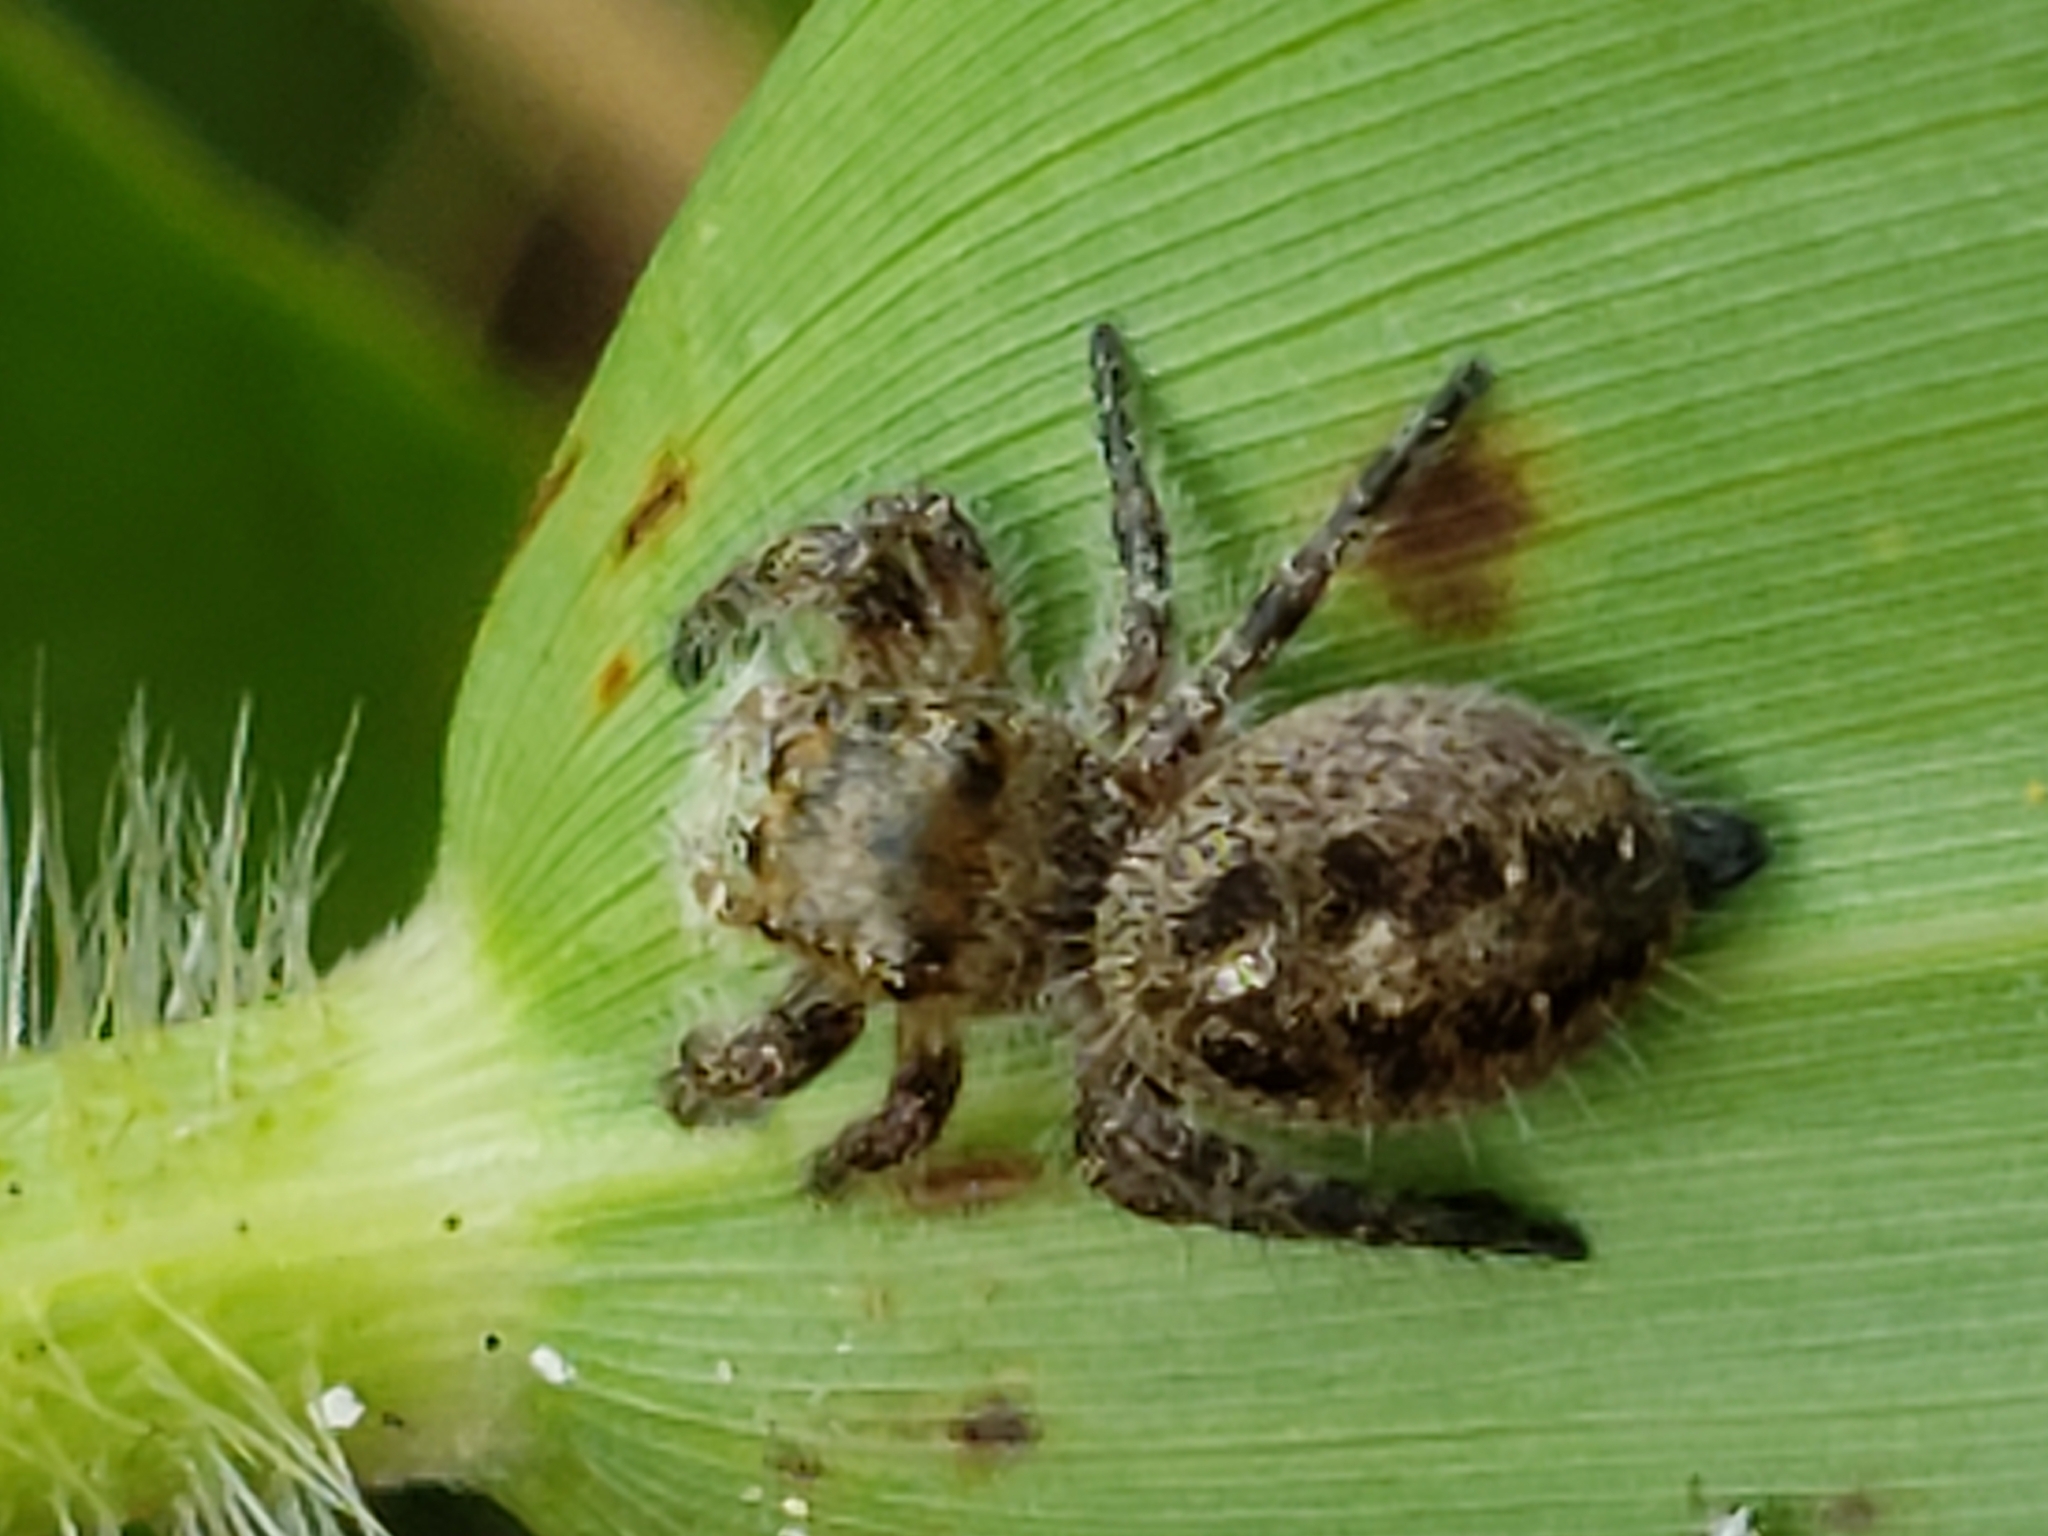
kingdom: Animalia
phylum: Arthropoda
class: Arachnida
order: Araneae
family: Salticidae
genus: Phidippus
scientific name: Phidippus princeps
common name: Grayish jumping spider
